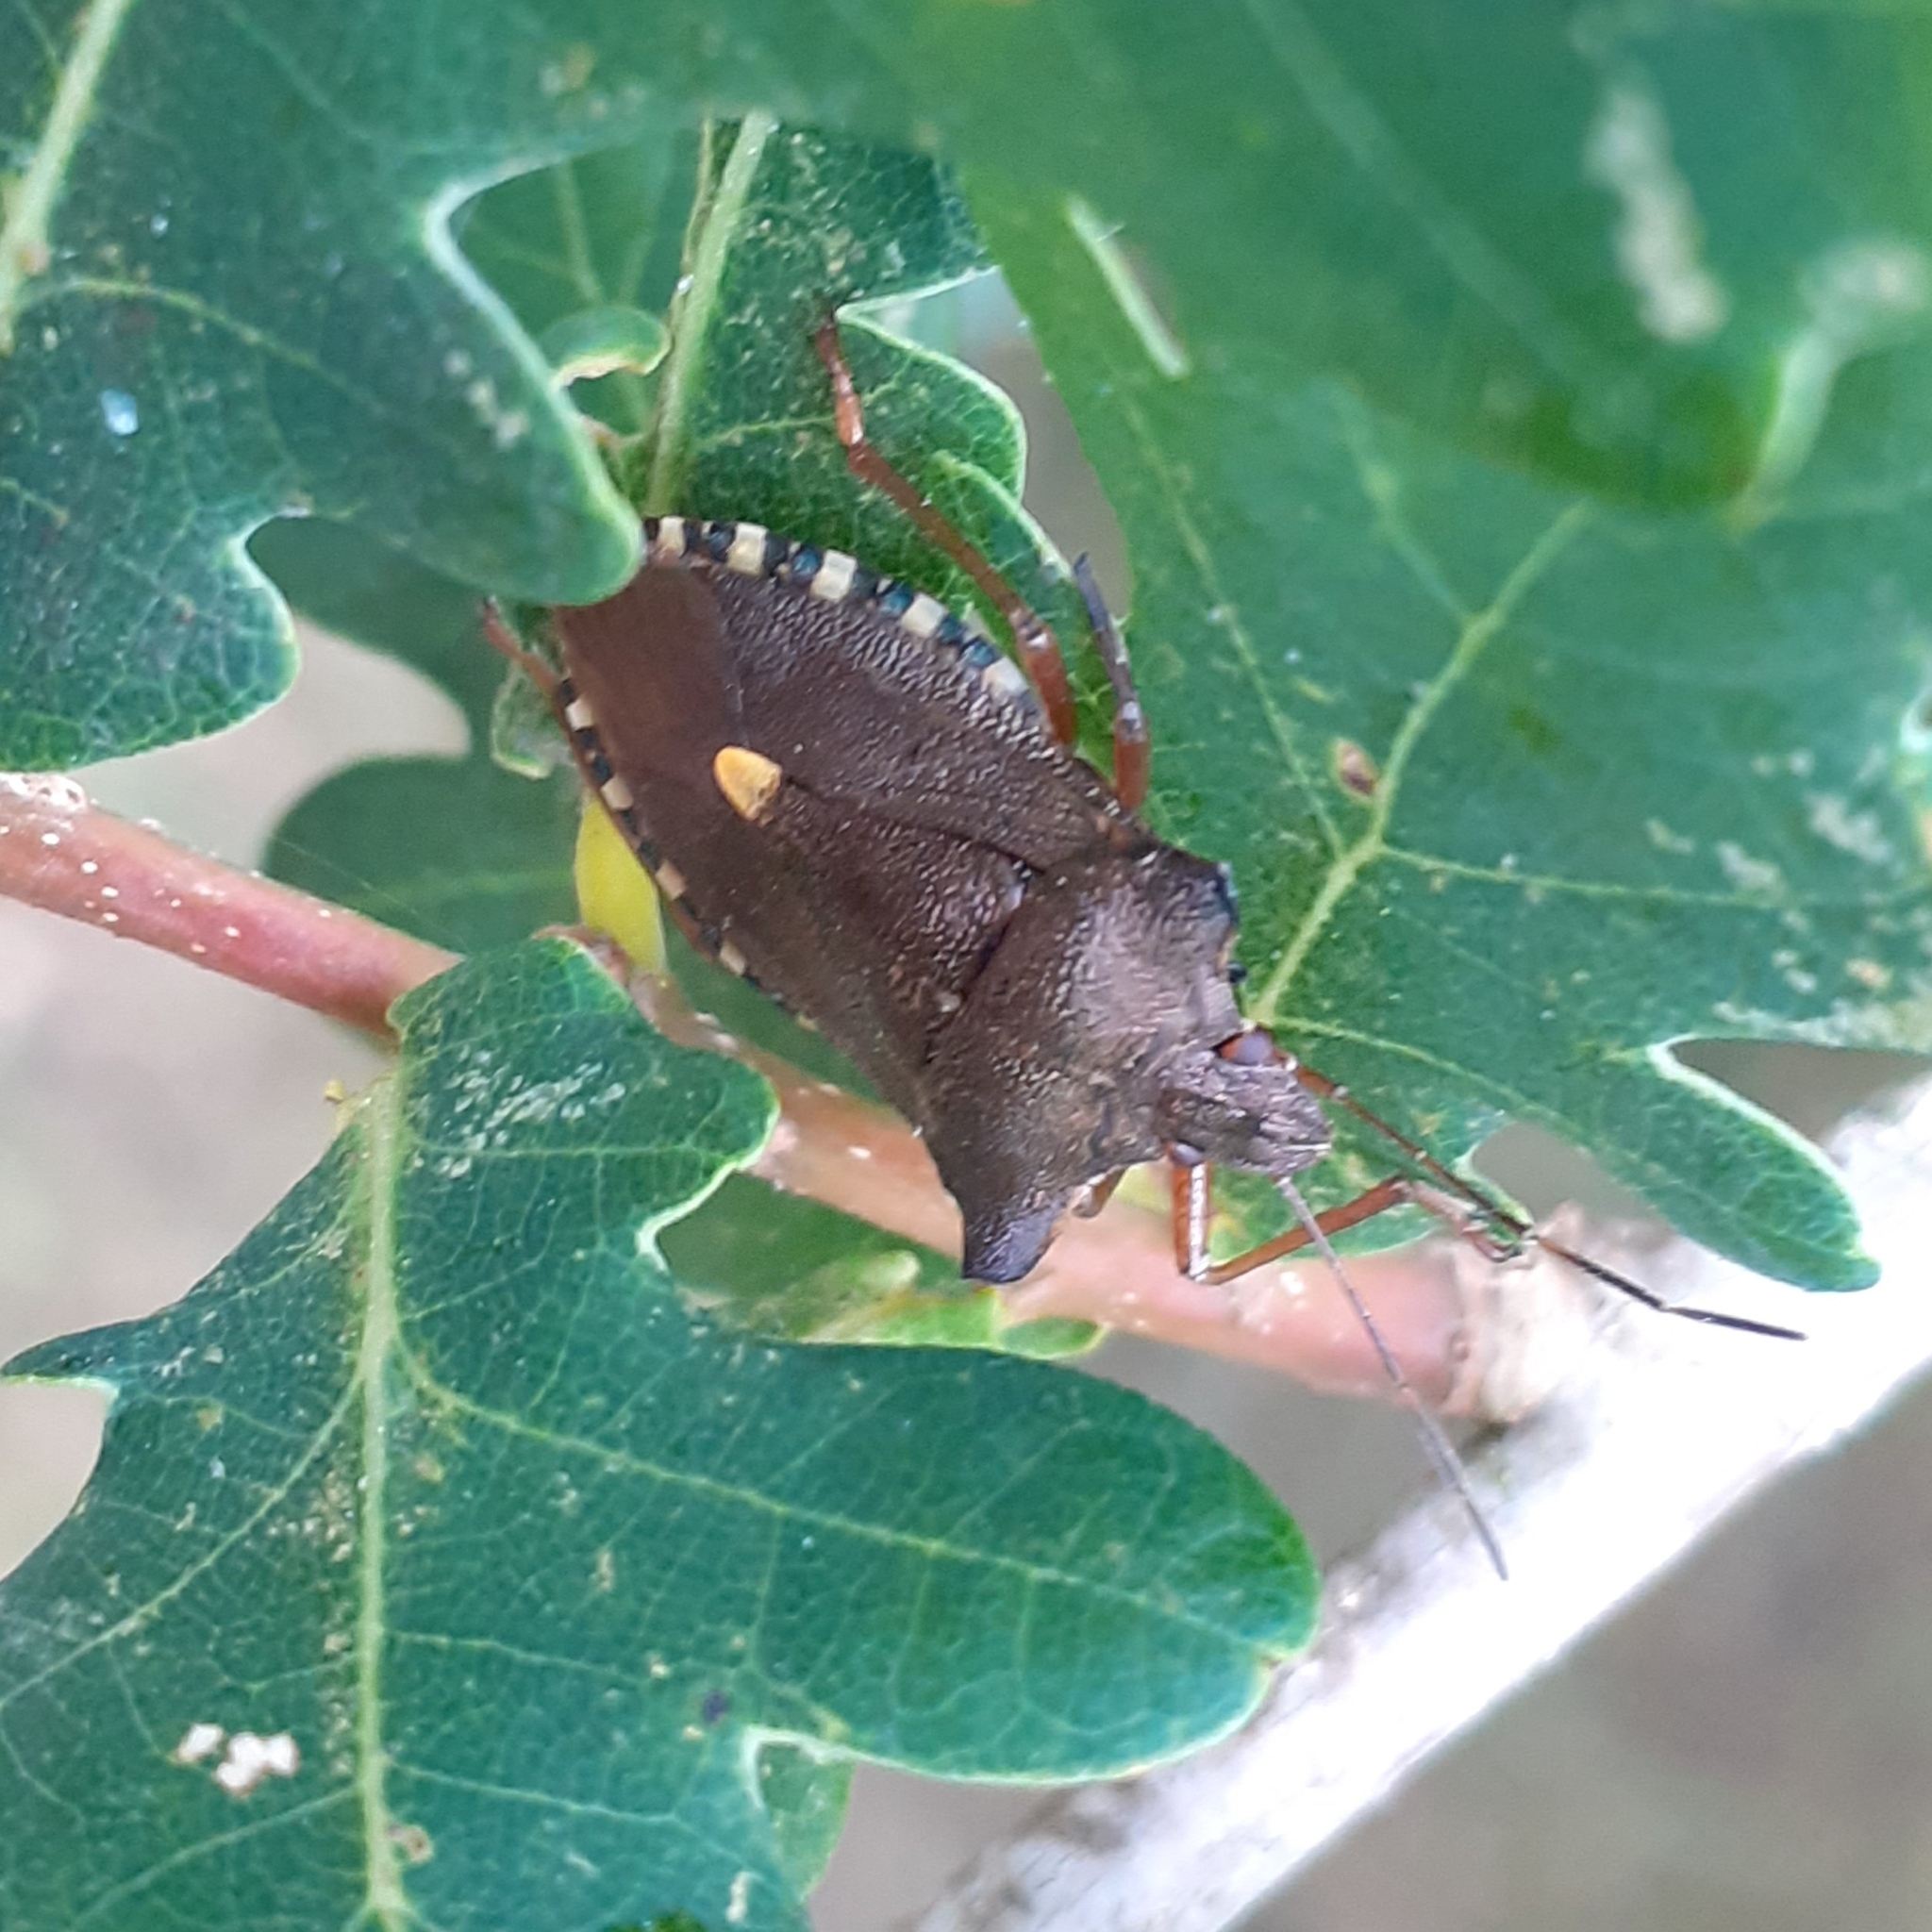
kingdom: Animalia
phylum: Arthropoda
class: Insecta
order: Hemiptera
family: Pentatomidae
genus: Pentatoma
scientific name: Pentatoma rufipes
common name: Forest bug
